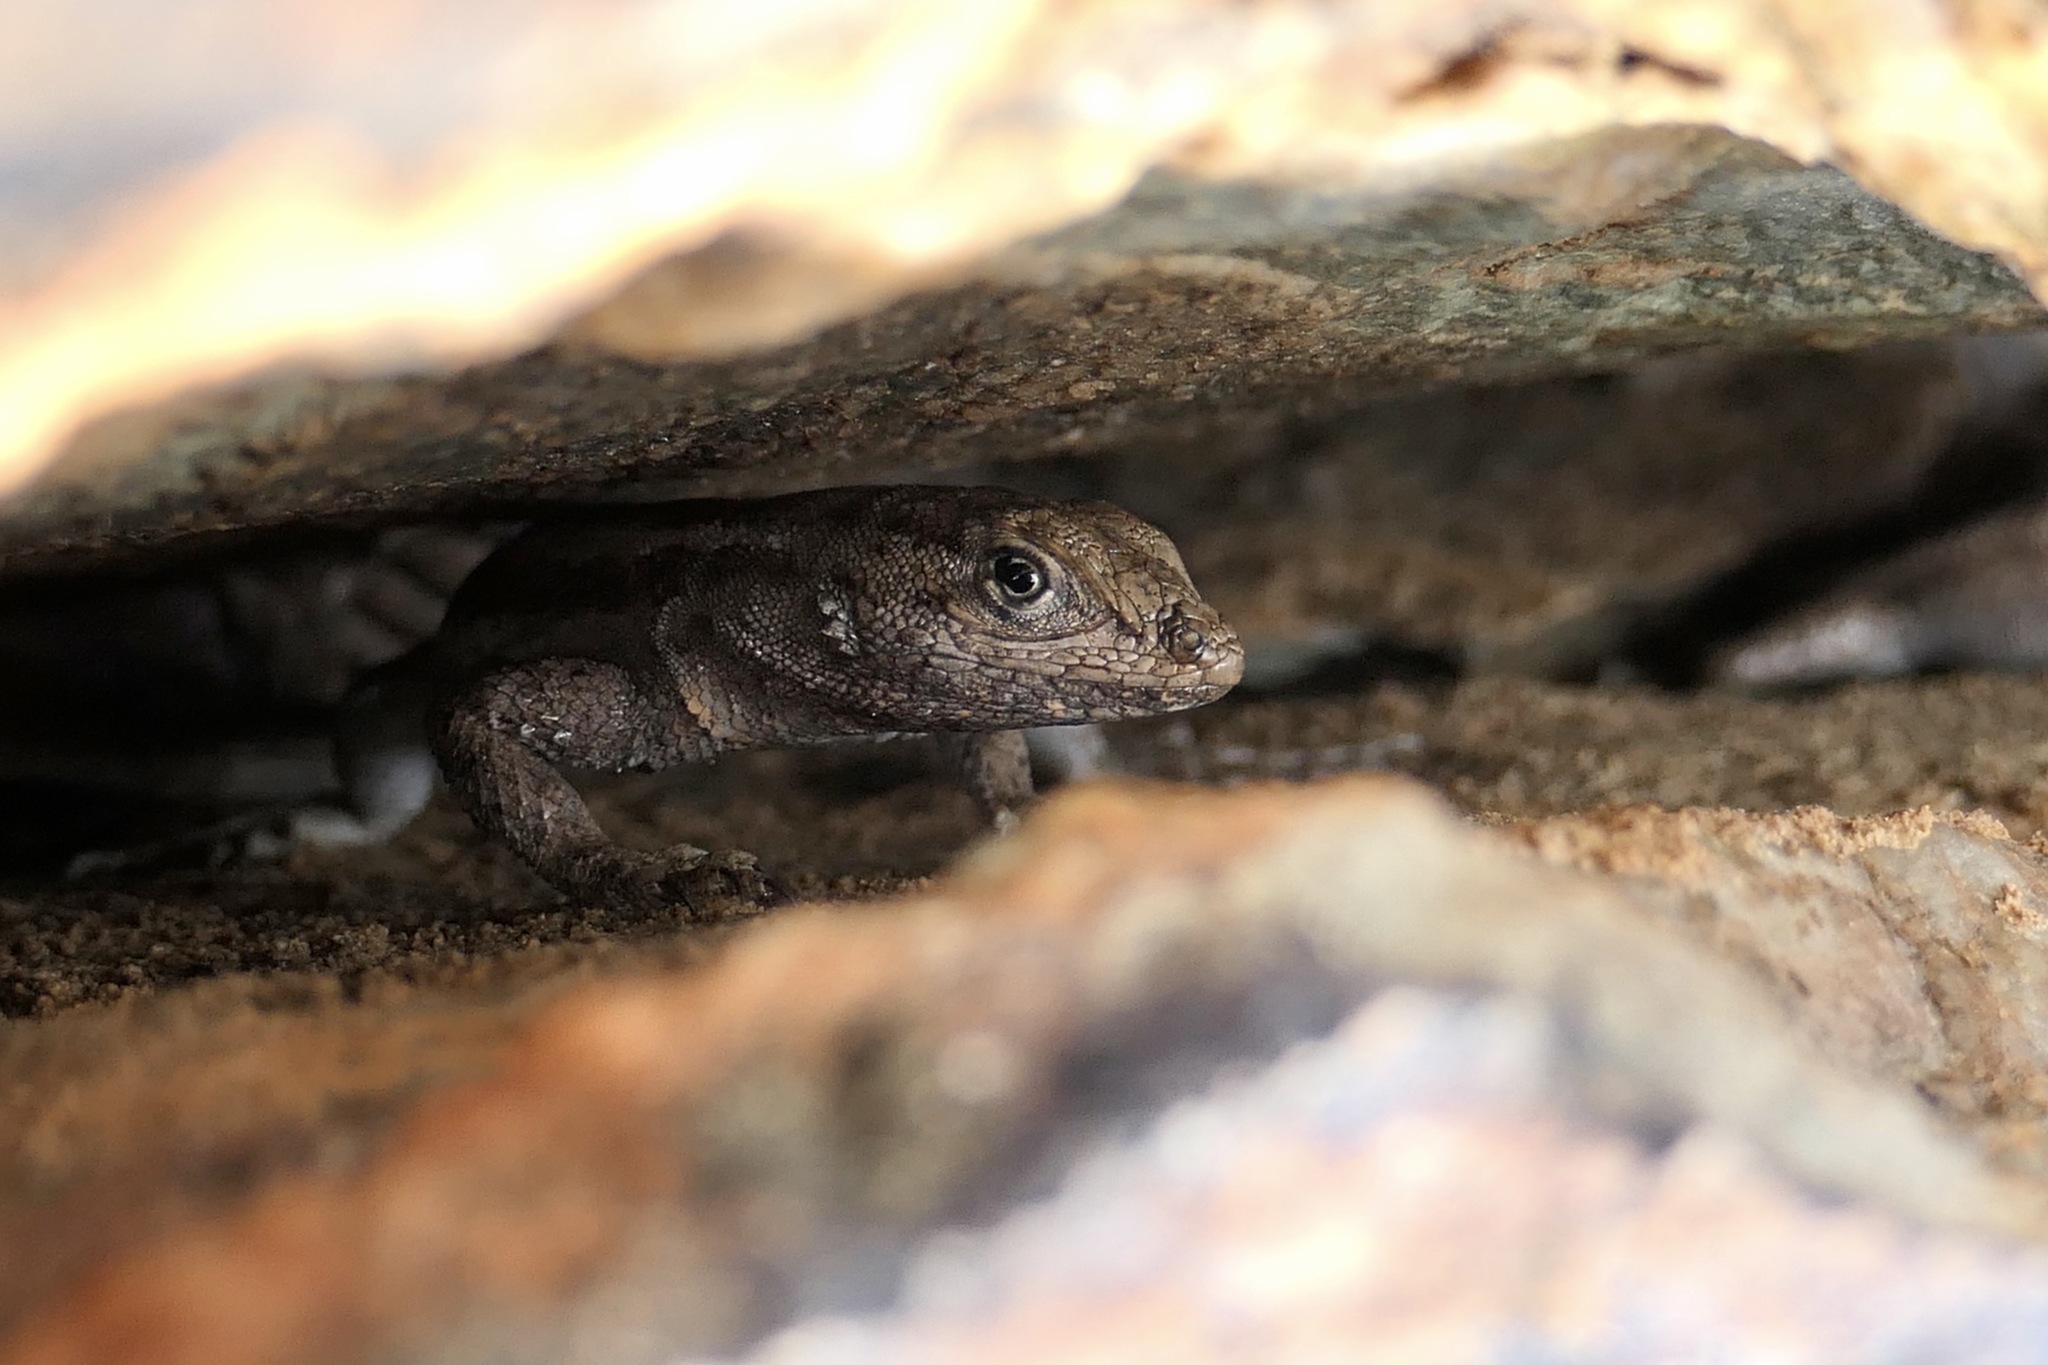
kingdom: Animalia
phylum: Chordata
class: Squamata
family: Phrynosomatidae
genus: Uta
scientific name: Uta stansburiana
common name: Side-blotched lizard
